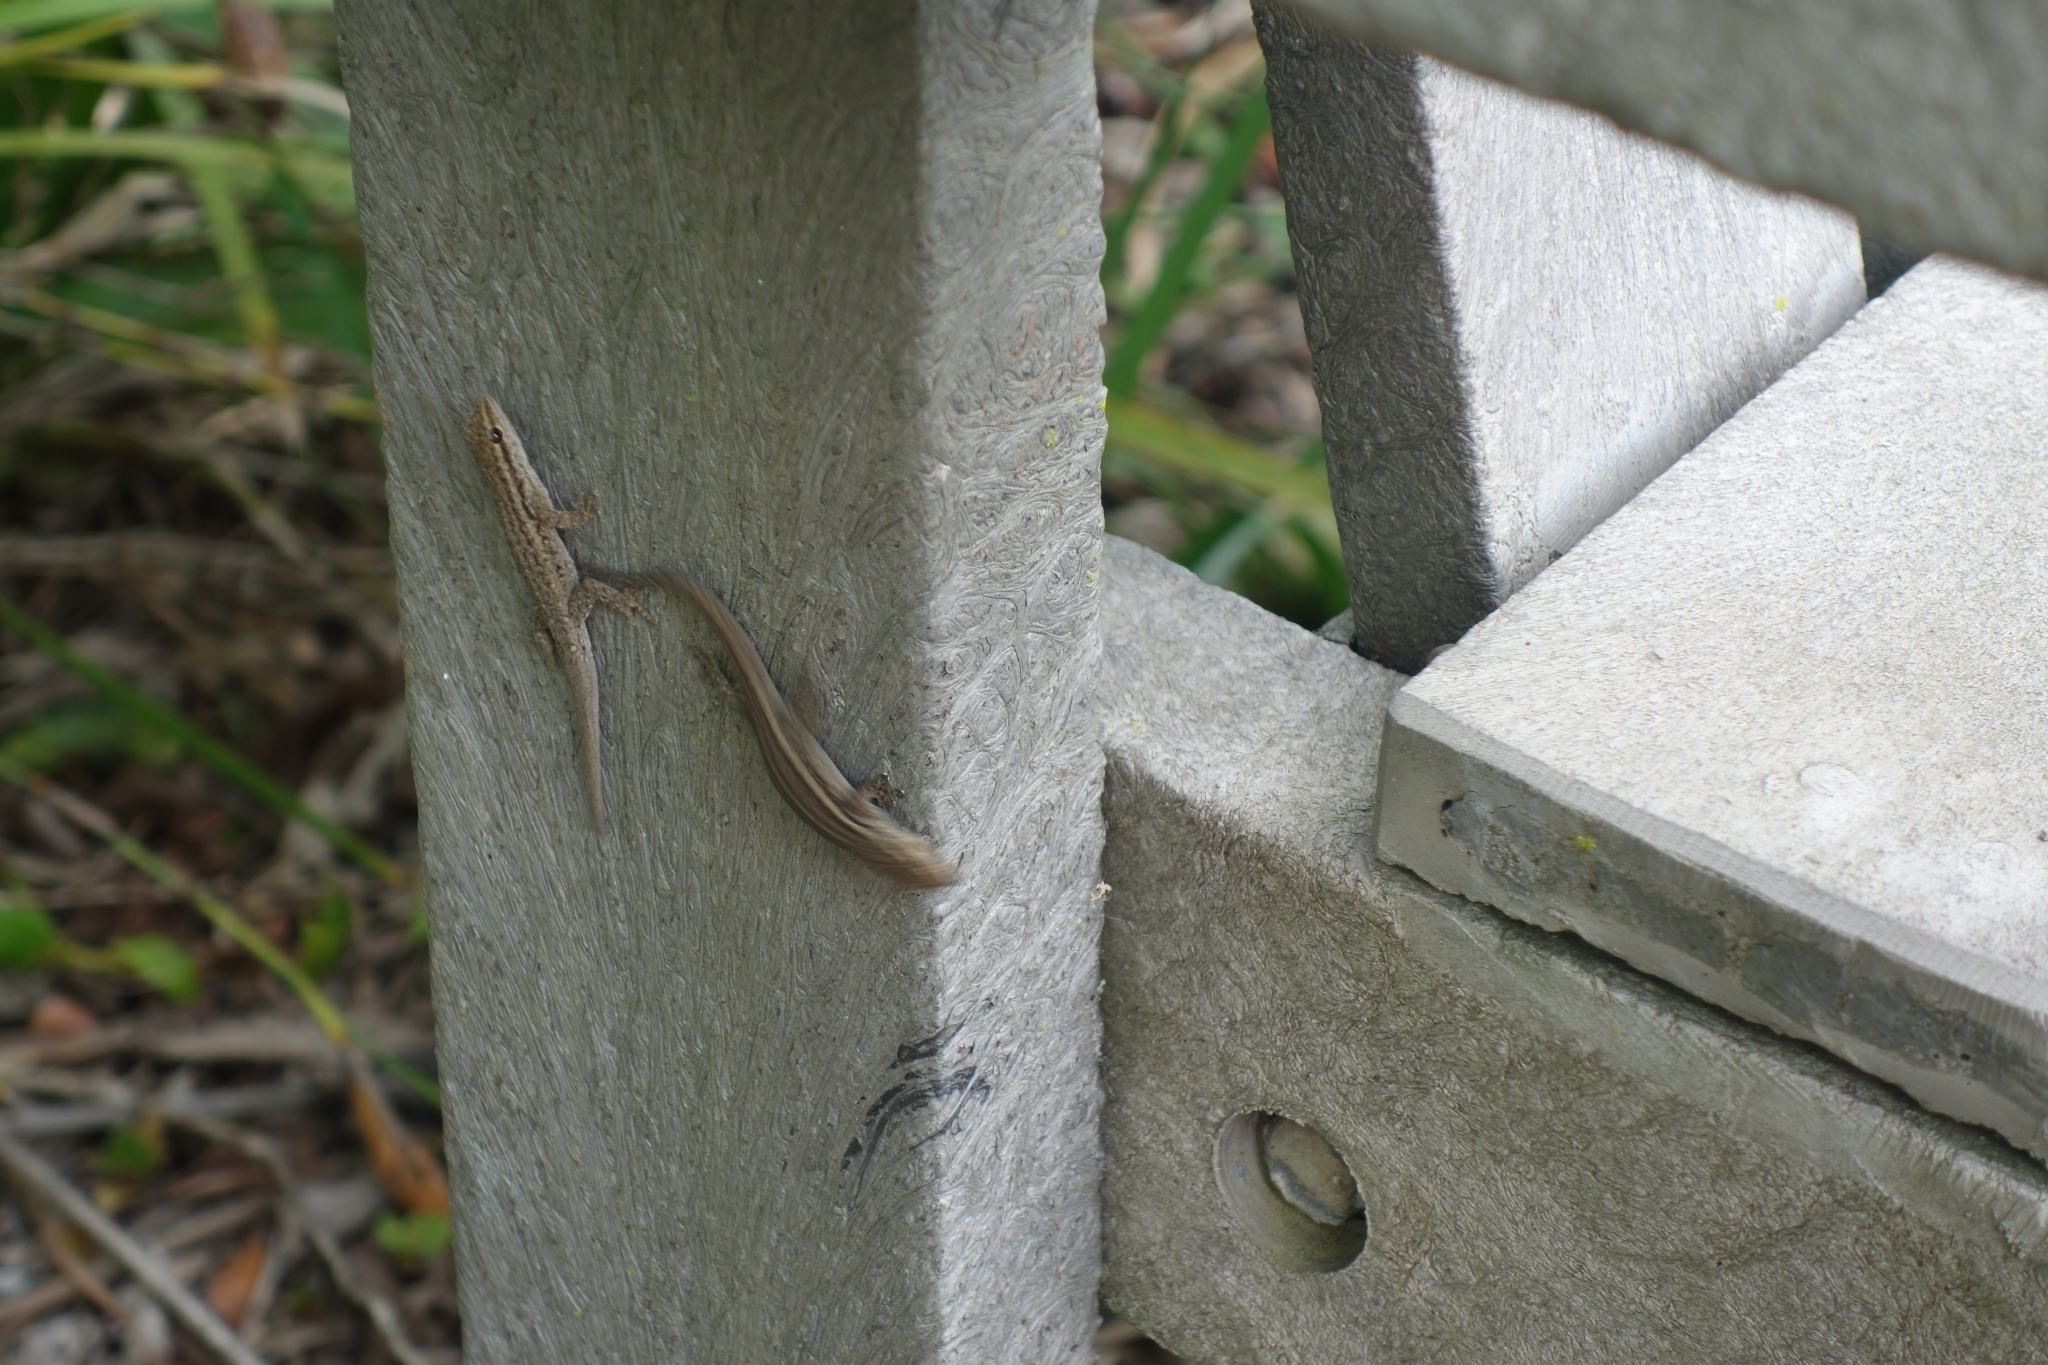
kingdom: Animalia
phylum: Chordata
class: Squamata
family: Gekkonidae
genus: Lygodactylus
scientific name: Lygodactylus capensis
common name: Cape dwarf gecko
